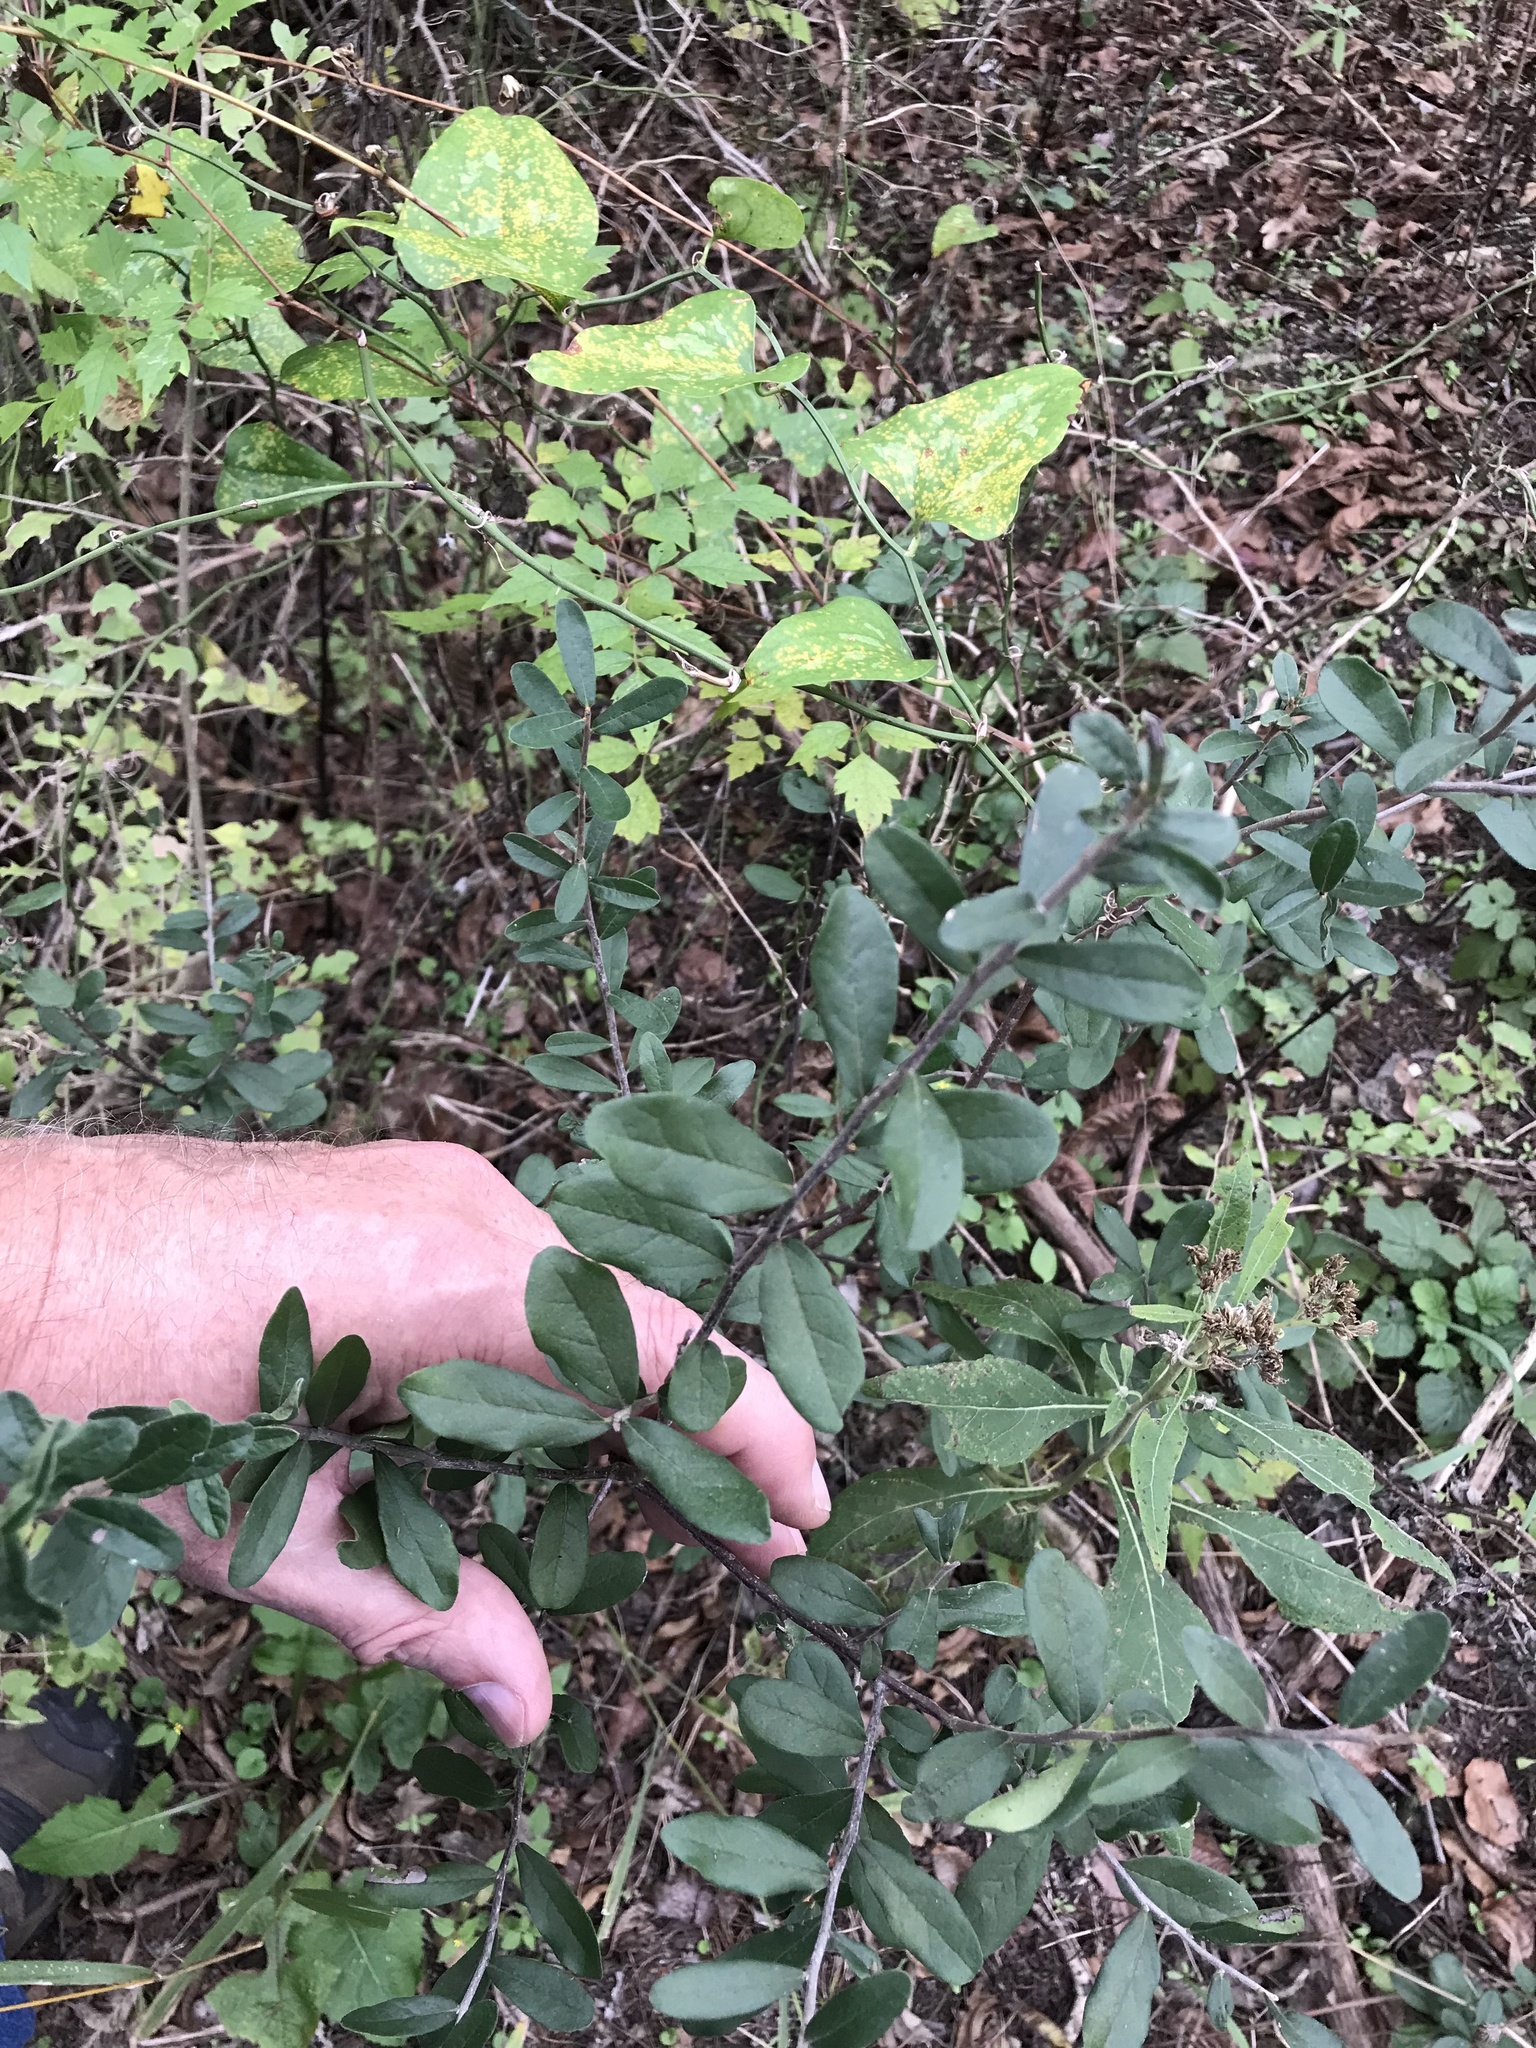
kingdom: Plantae
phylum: Tracheophyta
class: Magnoliopsida
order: Ericales
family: Ebenaceae
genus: Diospyros
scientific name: Diospyros texana
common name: Texas persimmon
